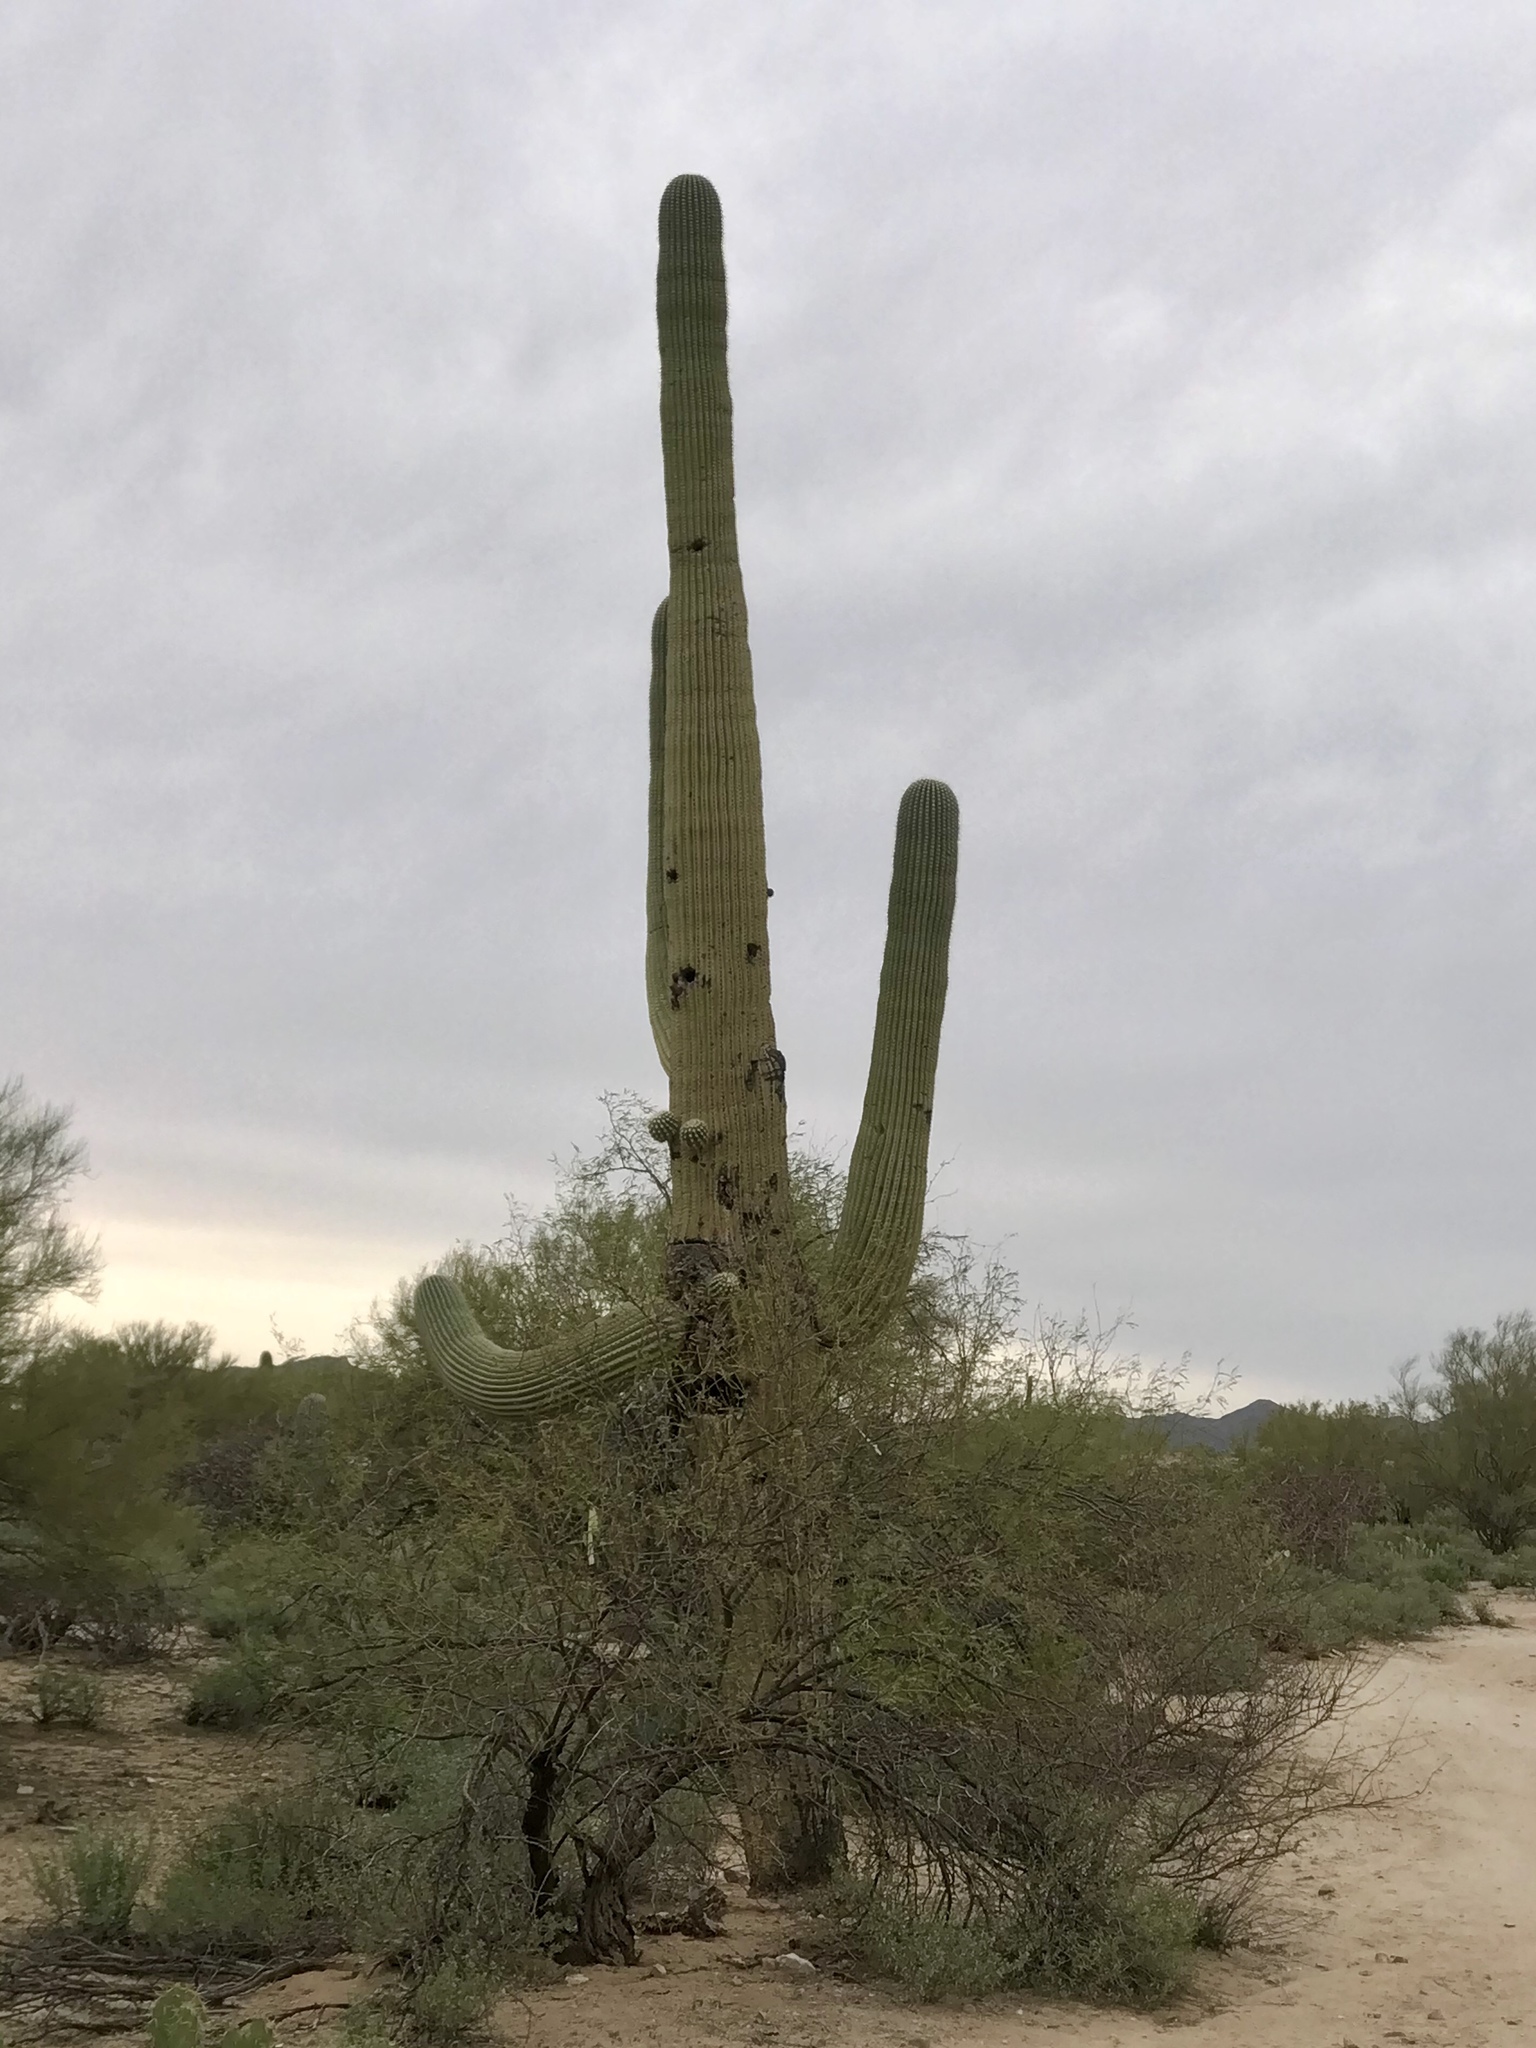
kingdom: Plantae
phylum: Tracheophyta
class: Magnoliopsida
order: Caryophyllales
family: Cactaceae
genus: Carnegiea
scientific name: Carnegiea gigantea
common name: Saguaro
